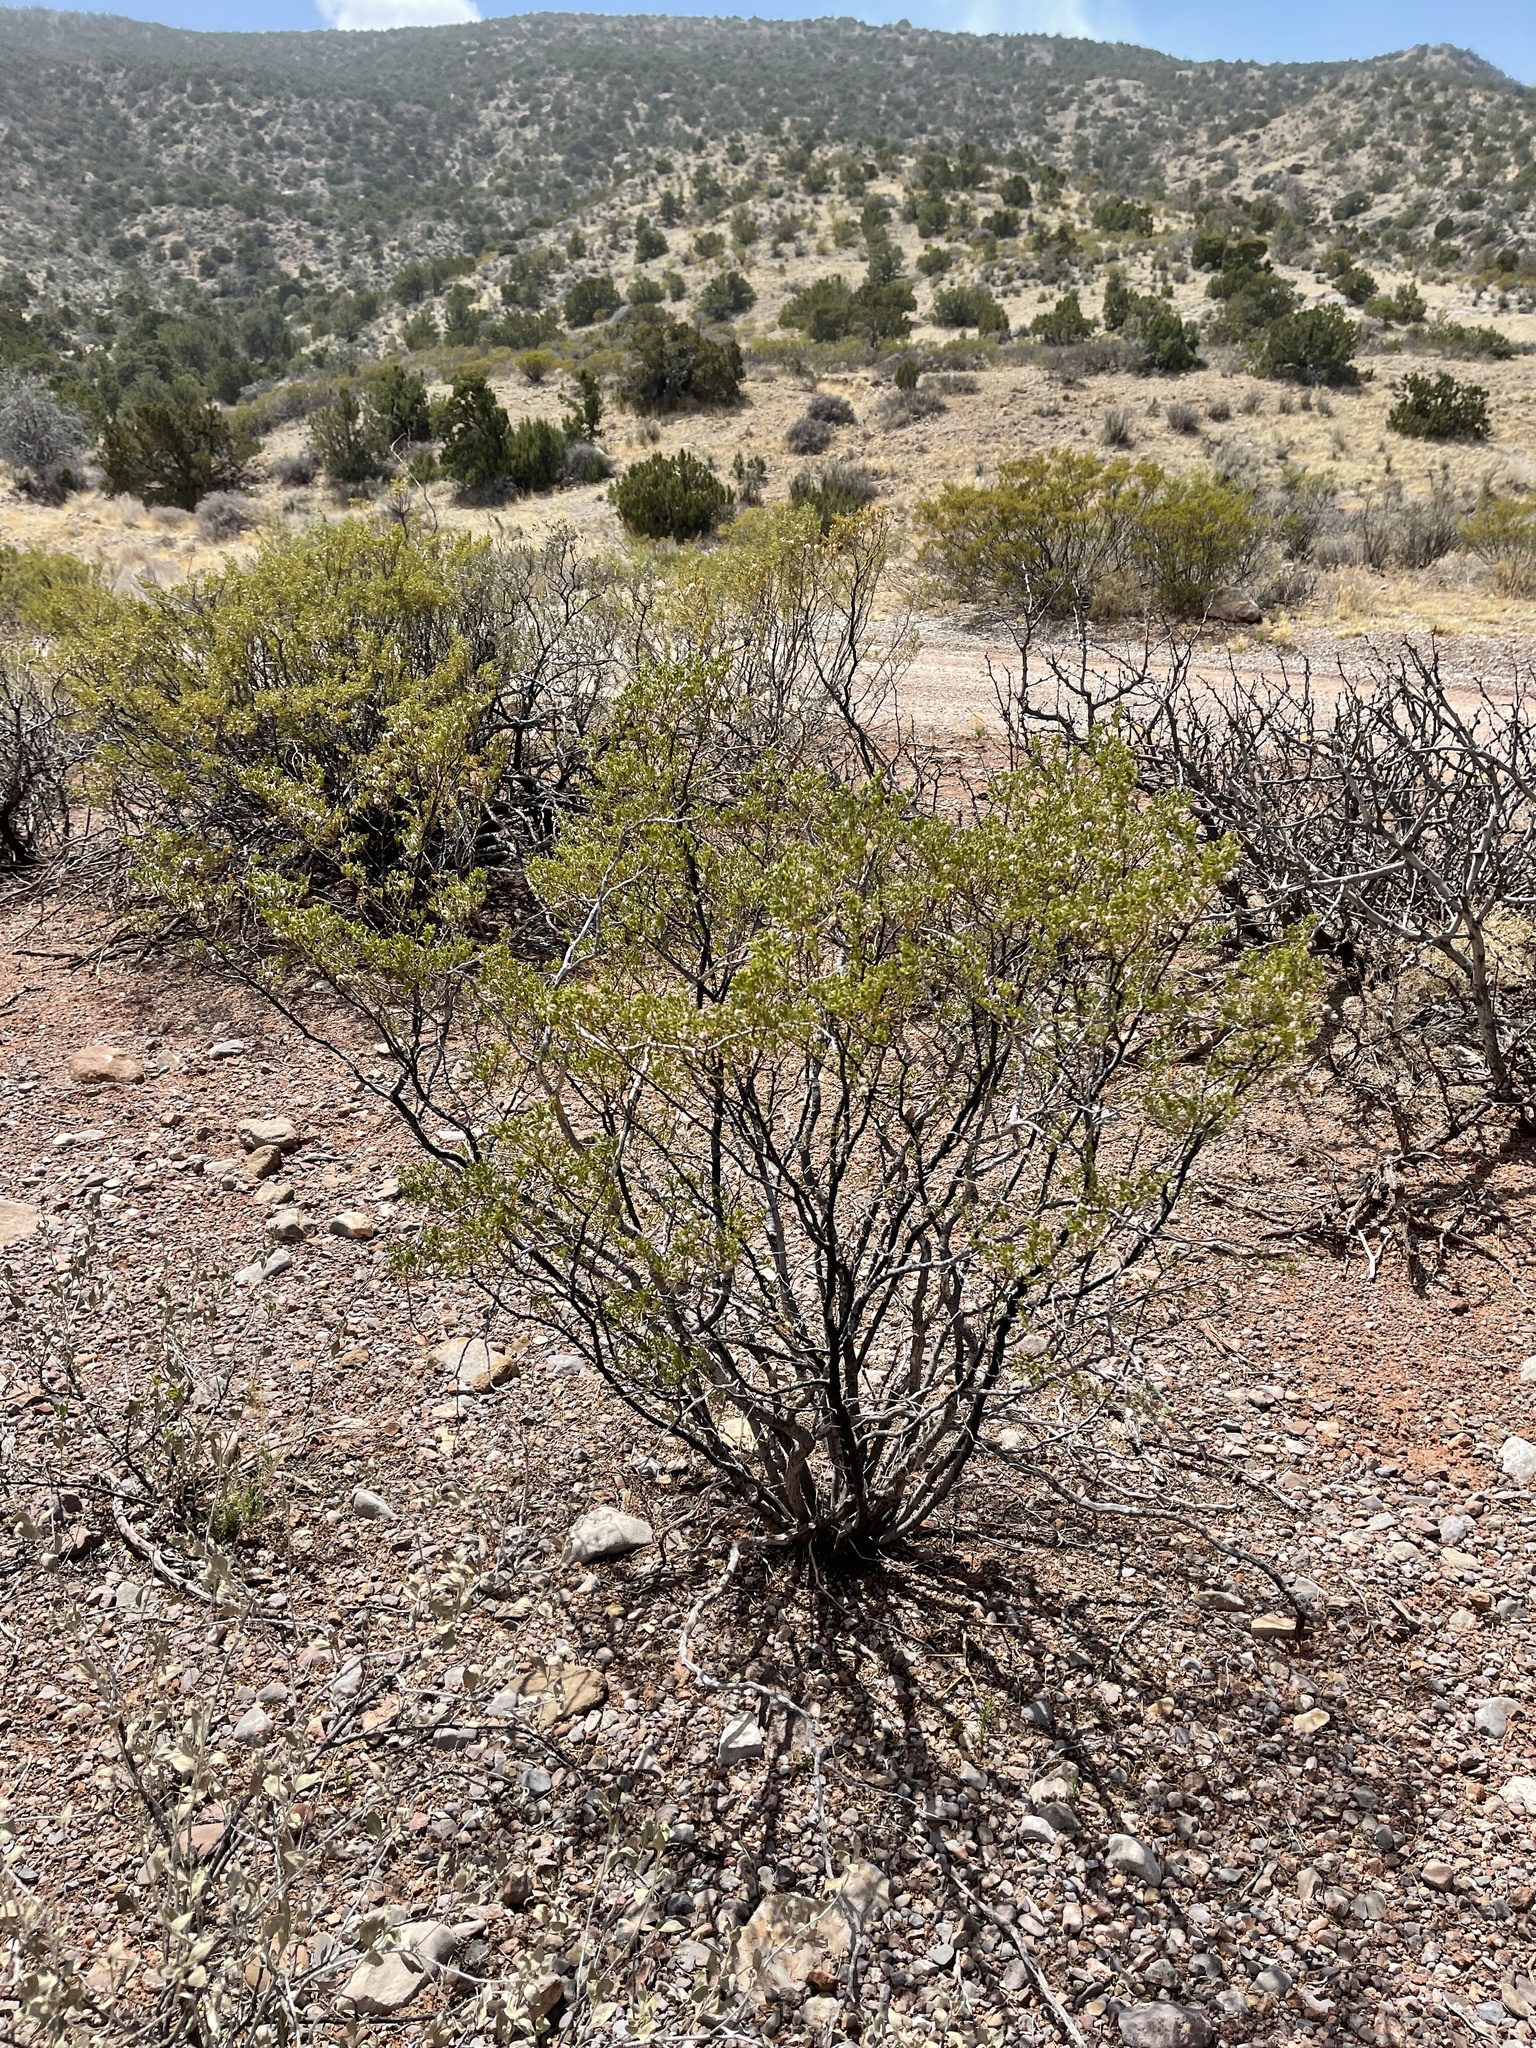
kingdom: Plantae
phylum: Tracheophyta
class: Magnoliopsida
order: Zygophyllales
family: Zygophyllaceae
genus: Larrea
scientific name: Larrea tridentata
